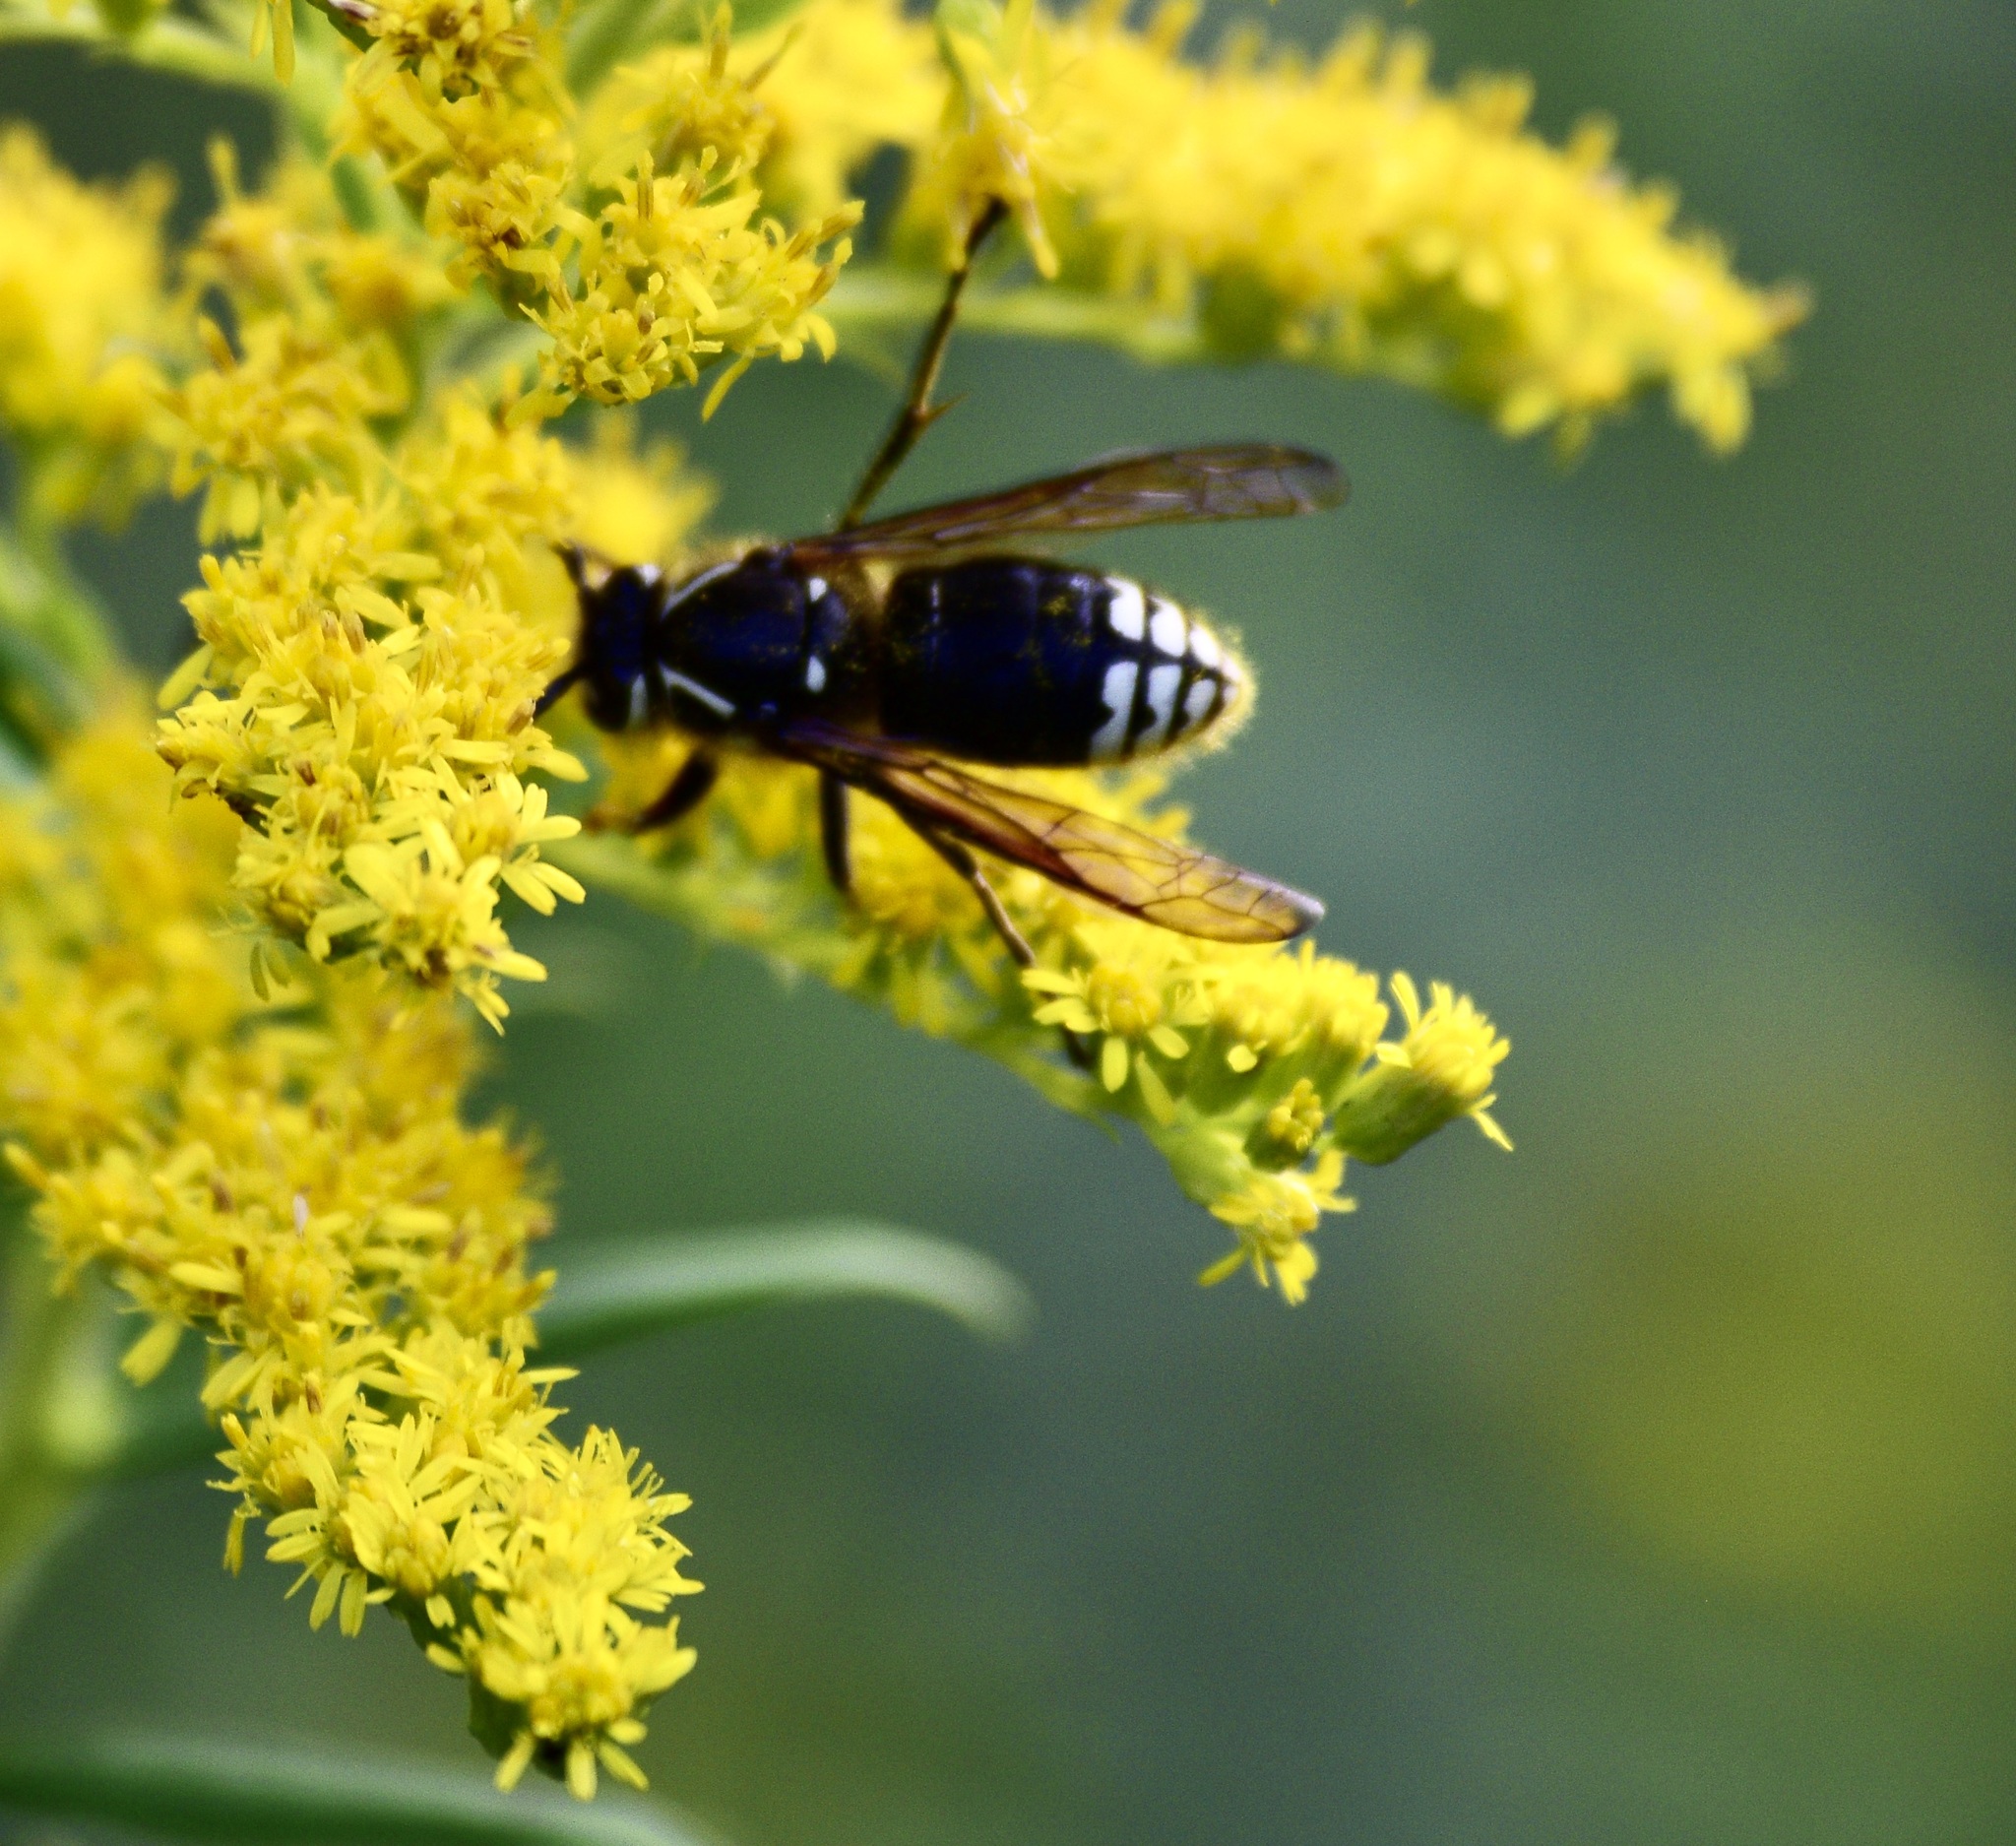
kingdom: Animalia
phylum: Arthropoda
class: Insecta
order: Hymenoptera
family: Vespidae
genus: Dolichovespula
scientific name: Dolichovespula maculata
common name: Bald-faced hornet
